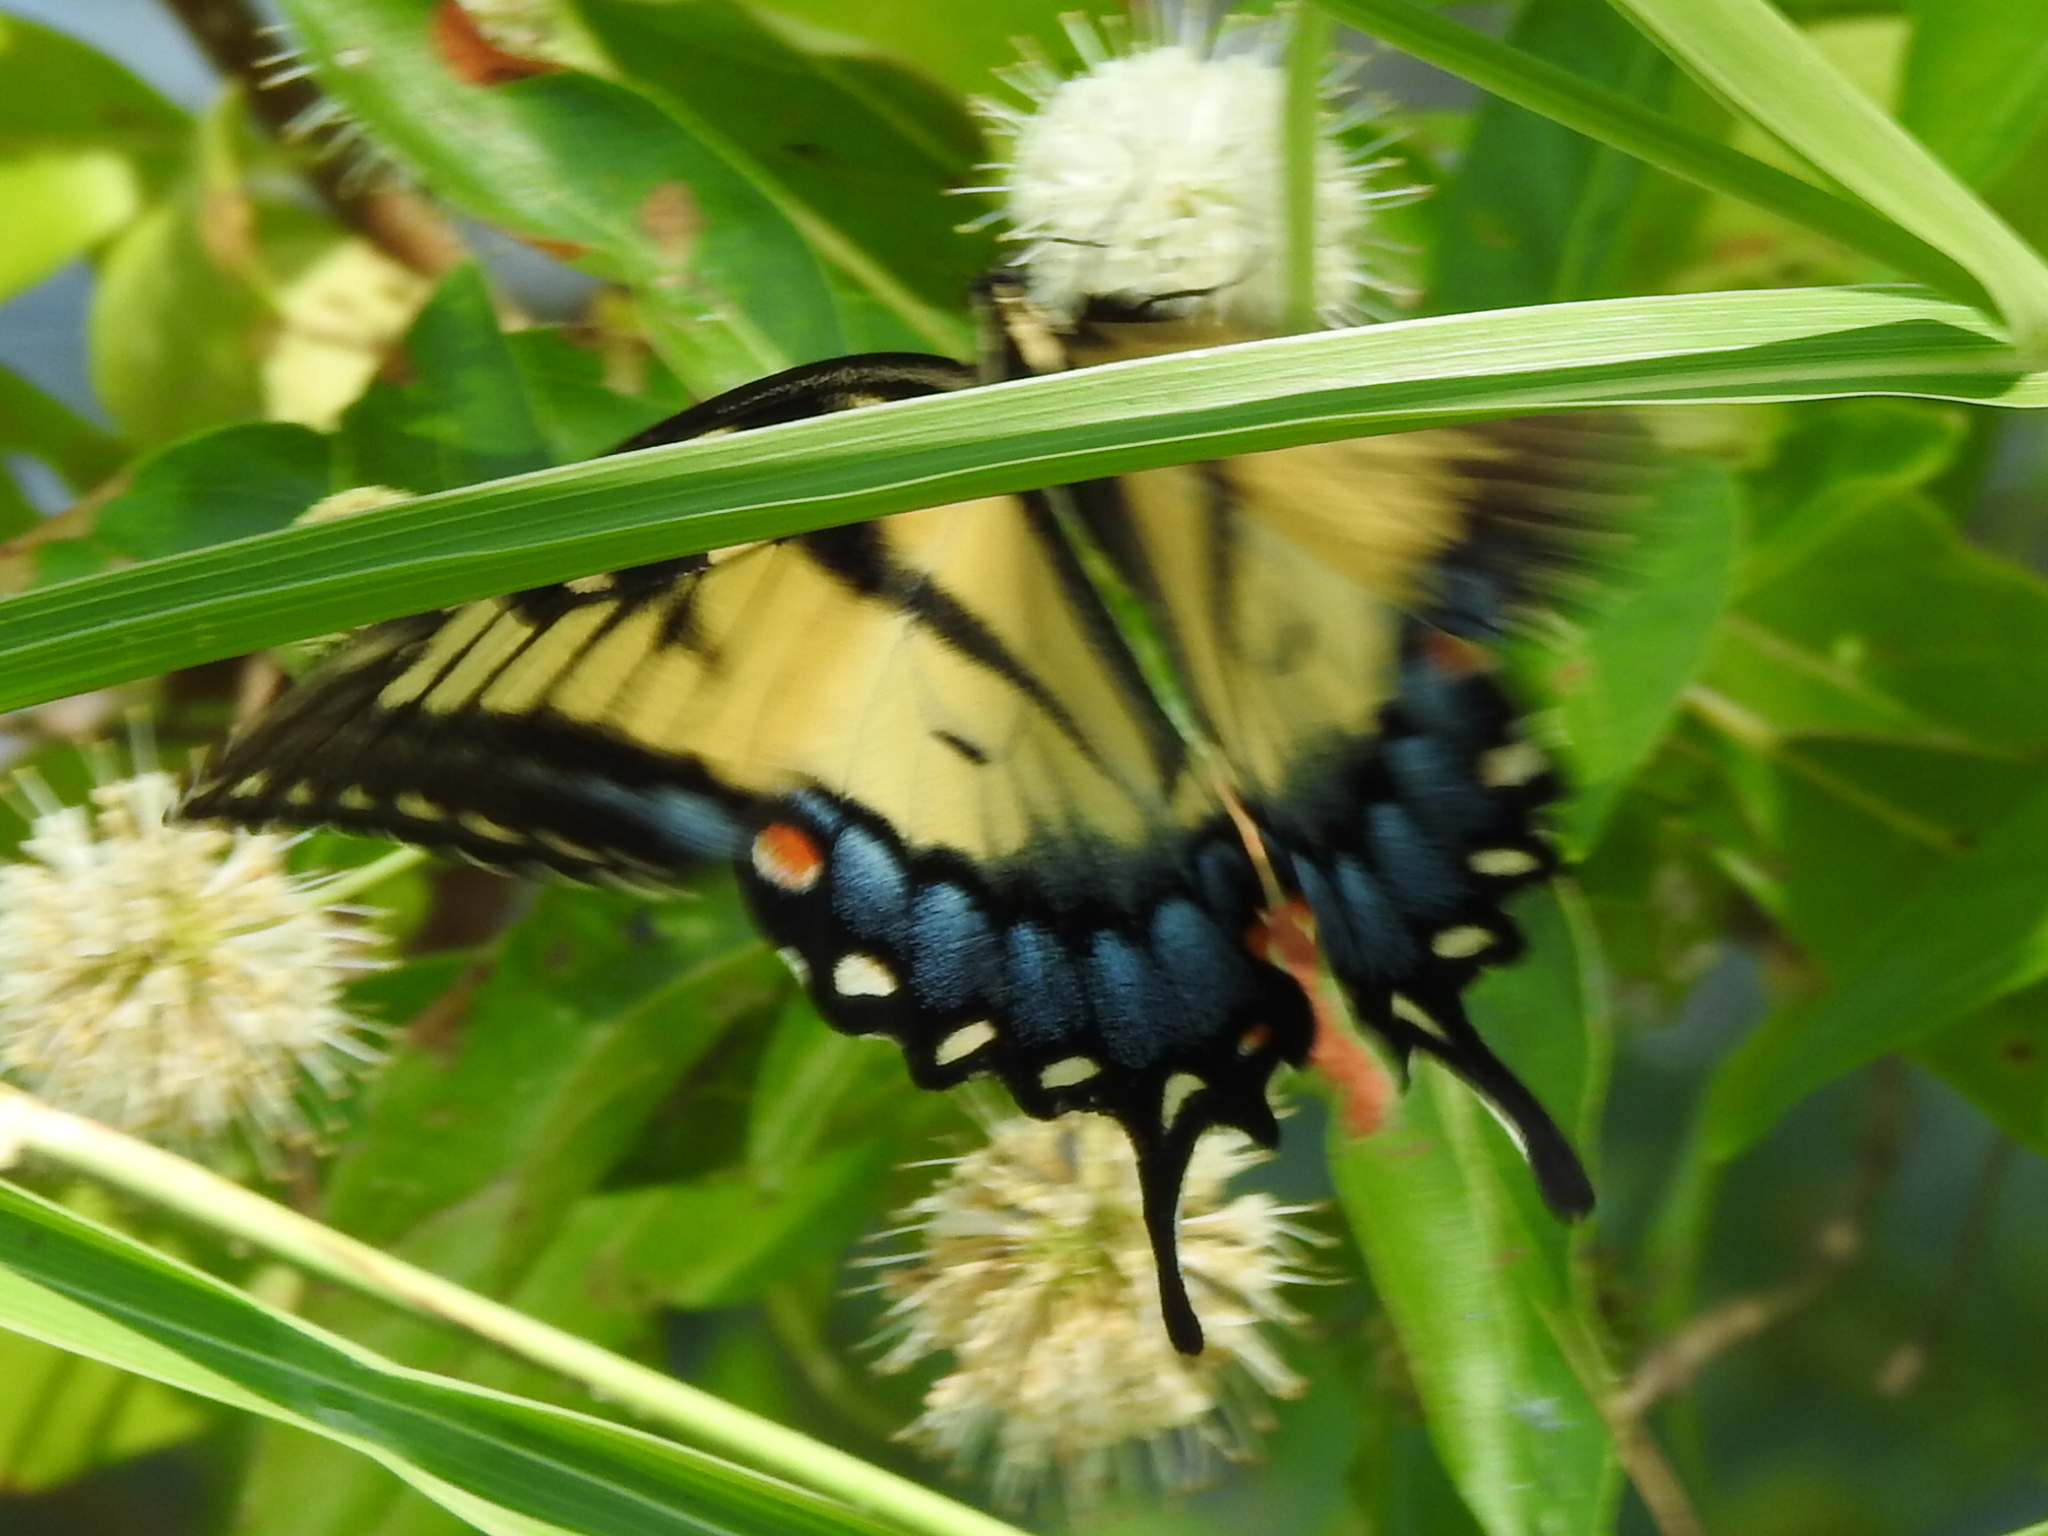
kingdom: Animalia
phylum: Arthropoda
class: Insecta
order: Lepidoptera
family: Papilionidae
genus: Papilio
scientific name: Papilio glaucus
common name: Tiger swallowtail
